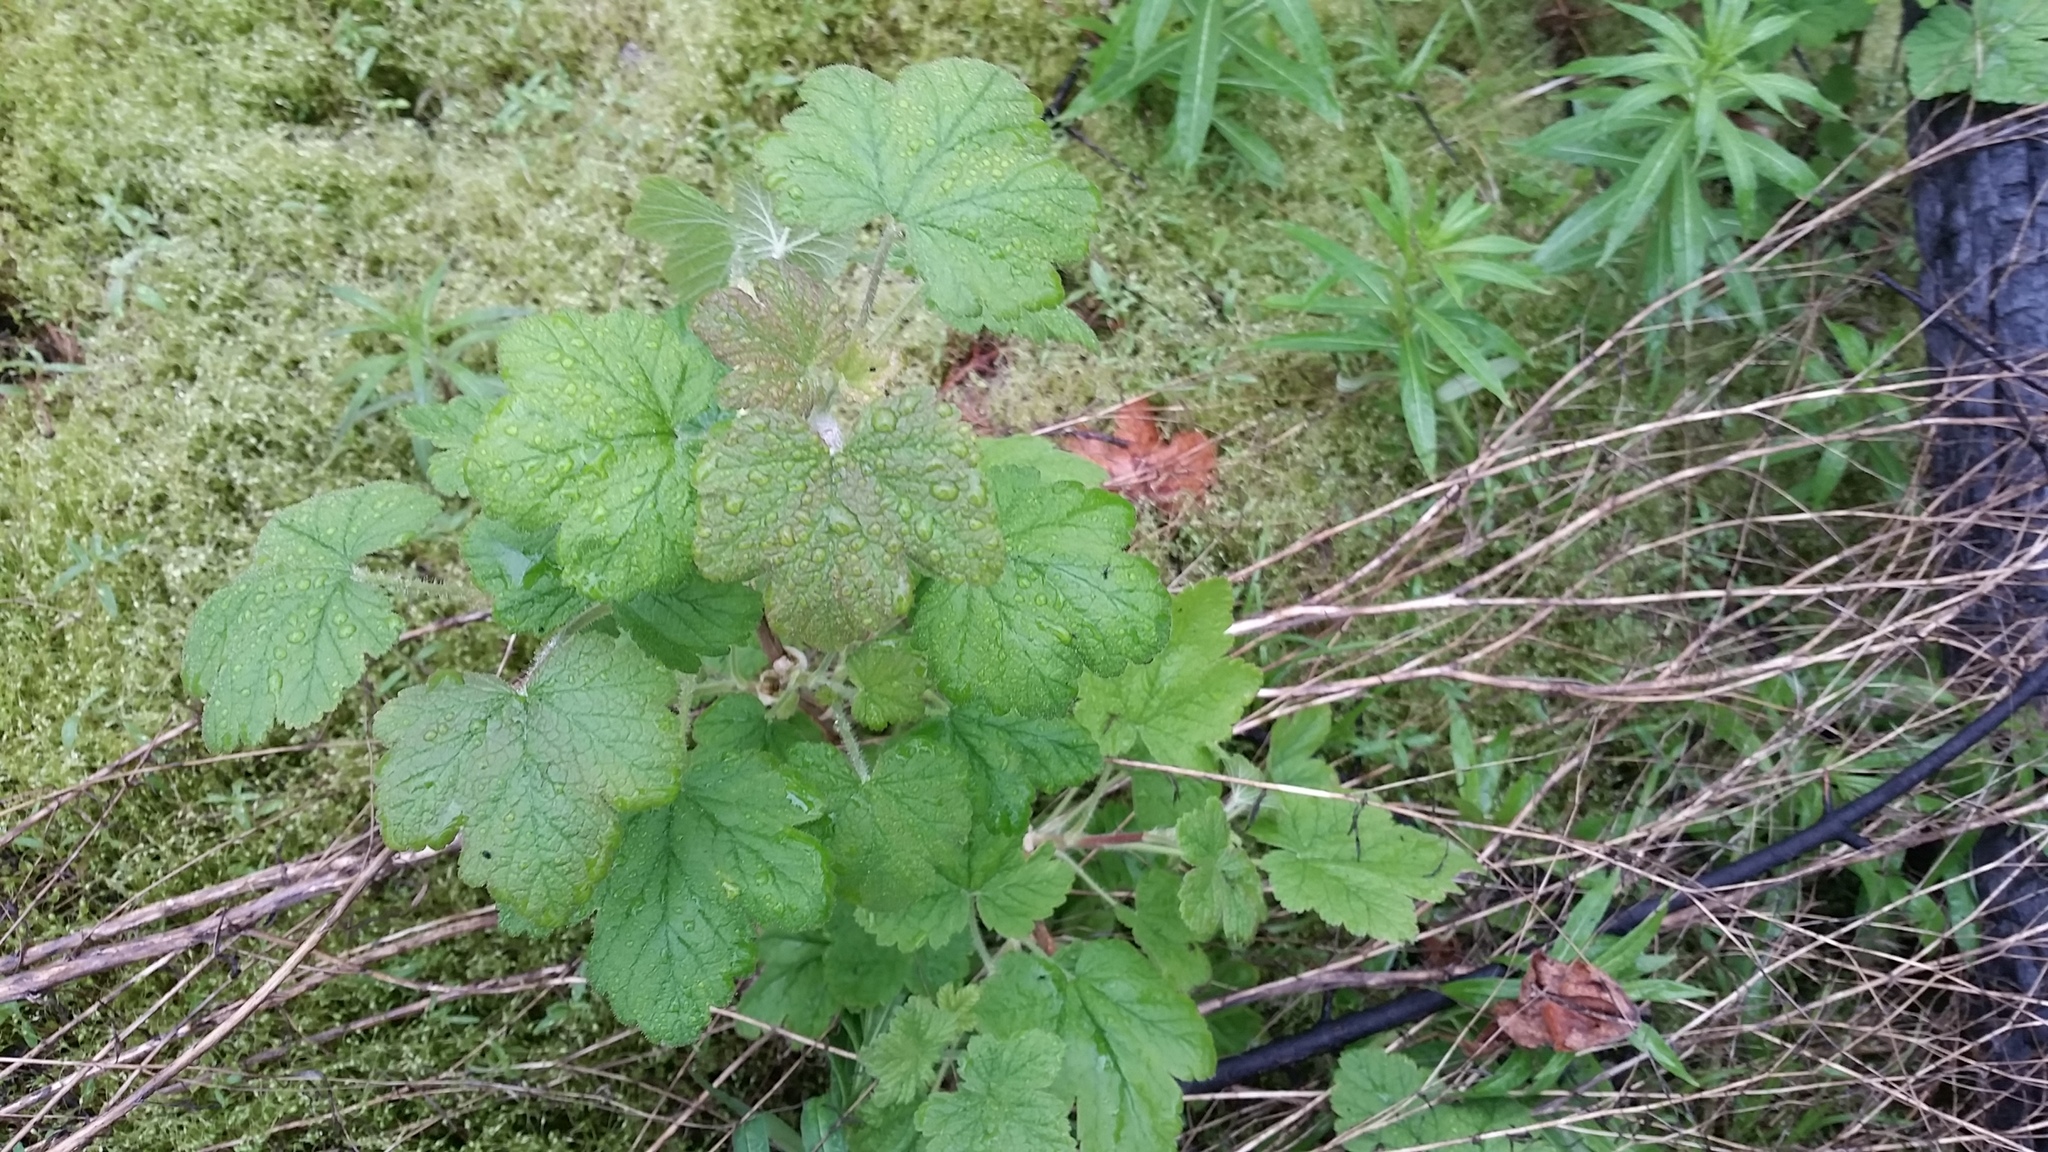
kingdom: Plantae
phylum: Tracheophyta
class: Magnoliopsida
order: Saxifragales
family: Grossulariaceae
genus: Ribes
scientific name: Ribes viscosissimum
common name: Sticky currant
